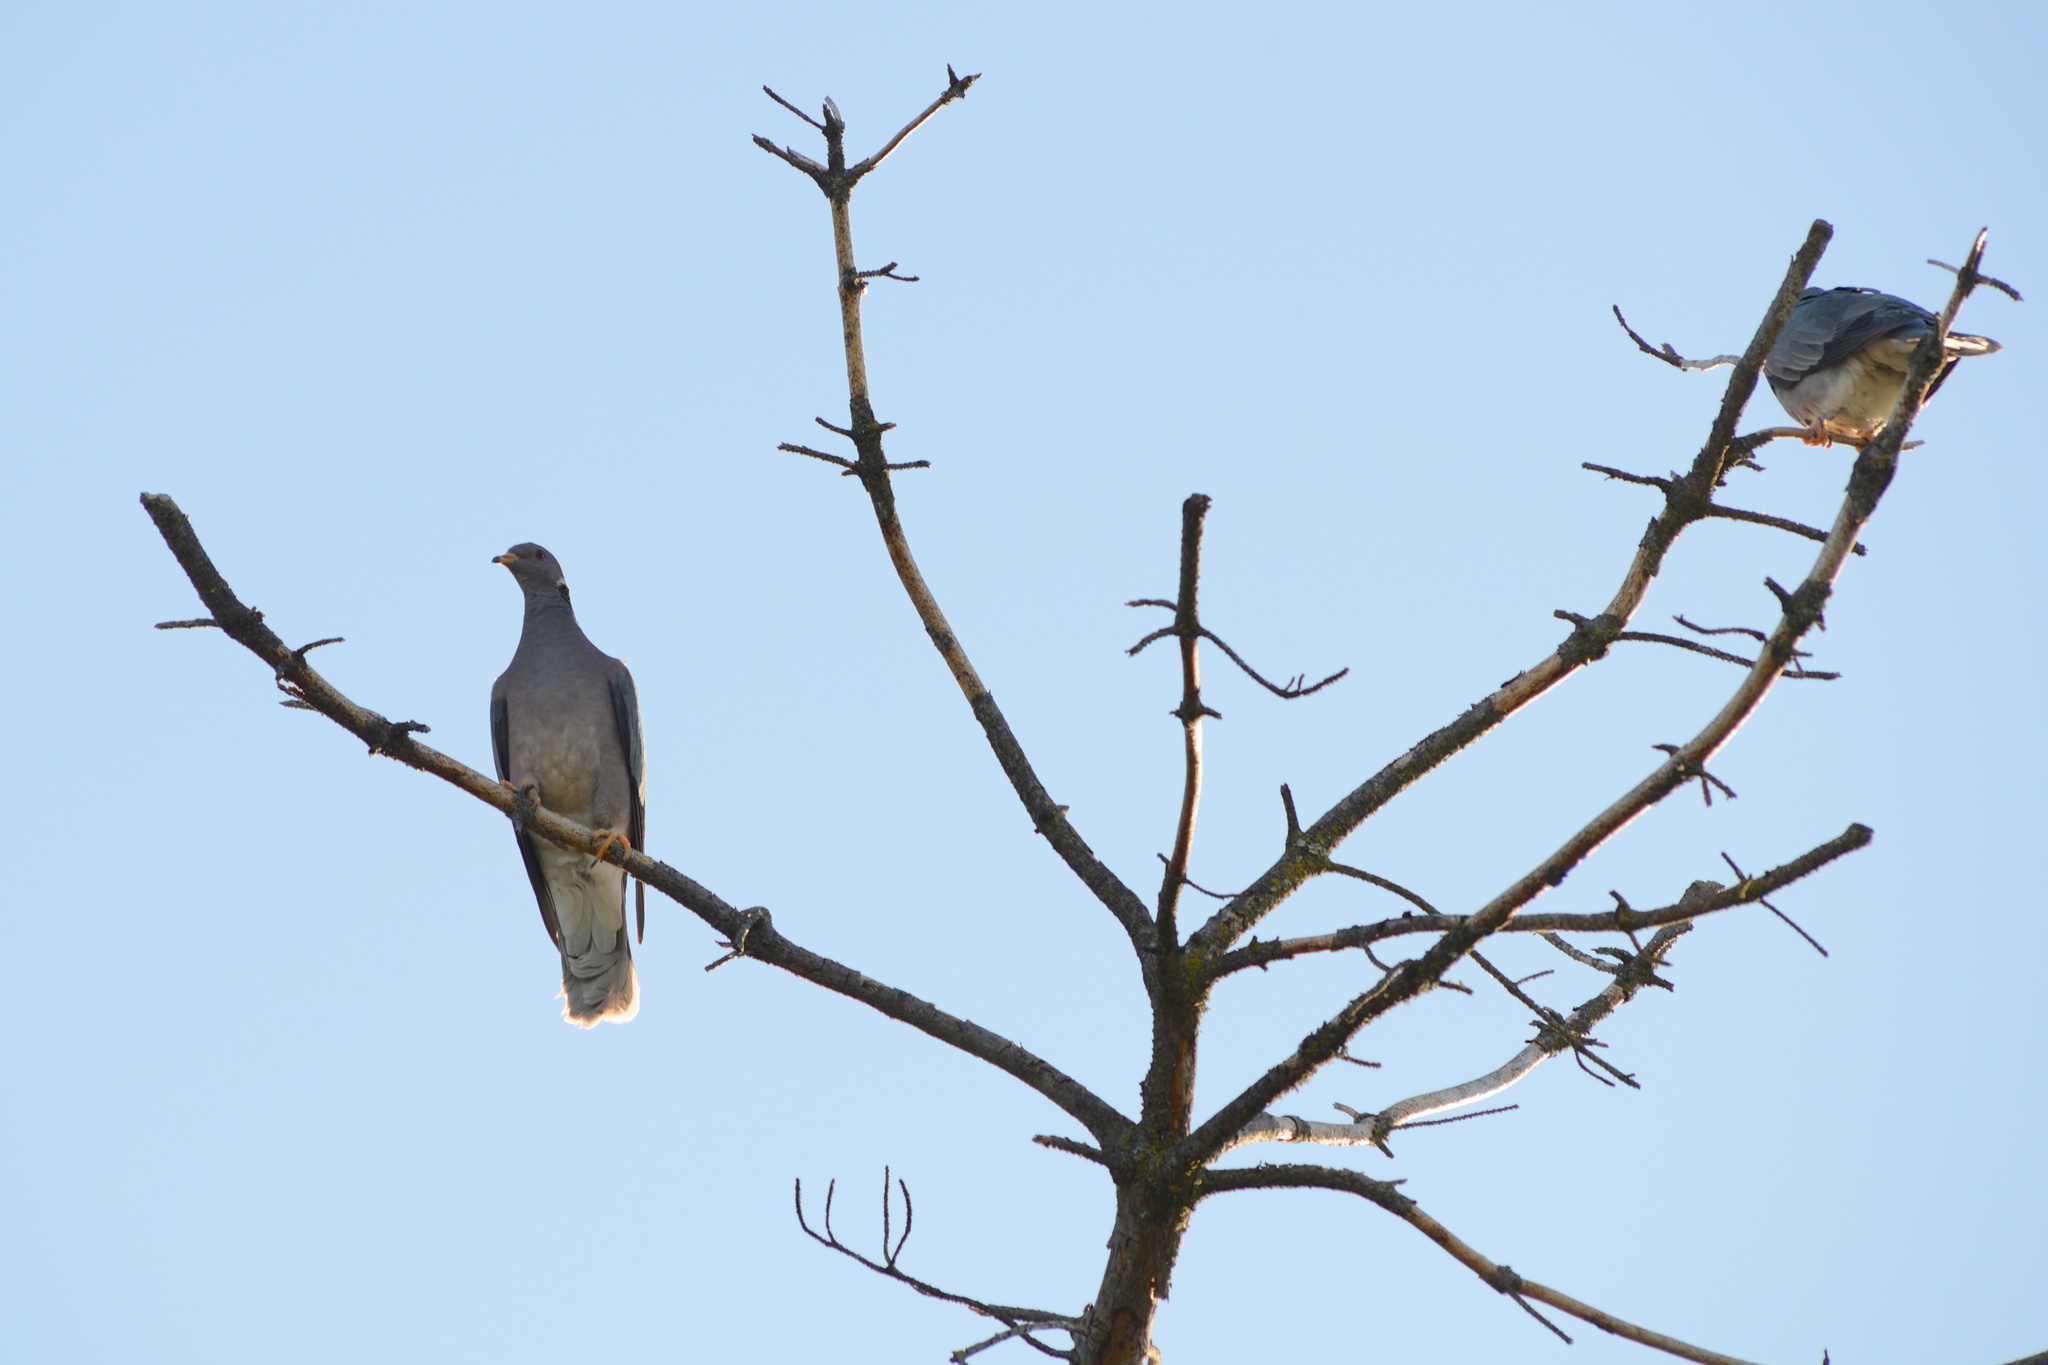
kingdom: Animalia
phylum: Chordata
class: Aves
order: Columbiformes
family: Columbidae
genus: Patagioenas
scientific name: Patagioenas fasciata
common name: Band-tailed pigeon
